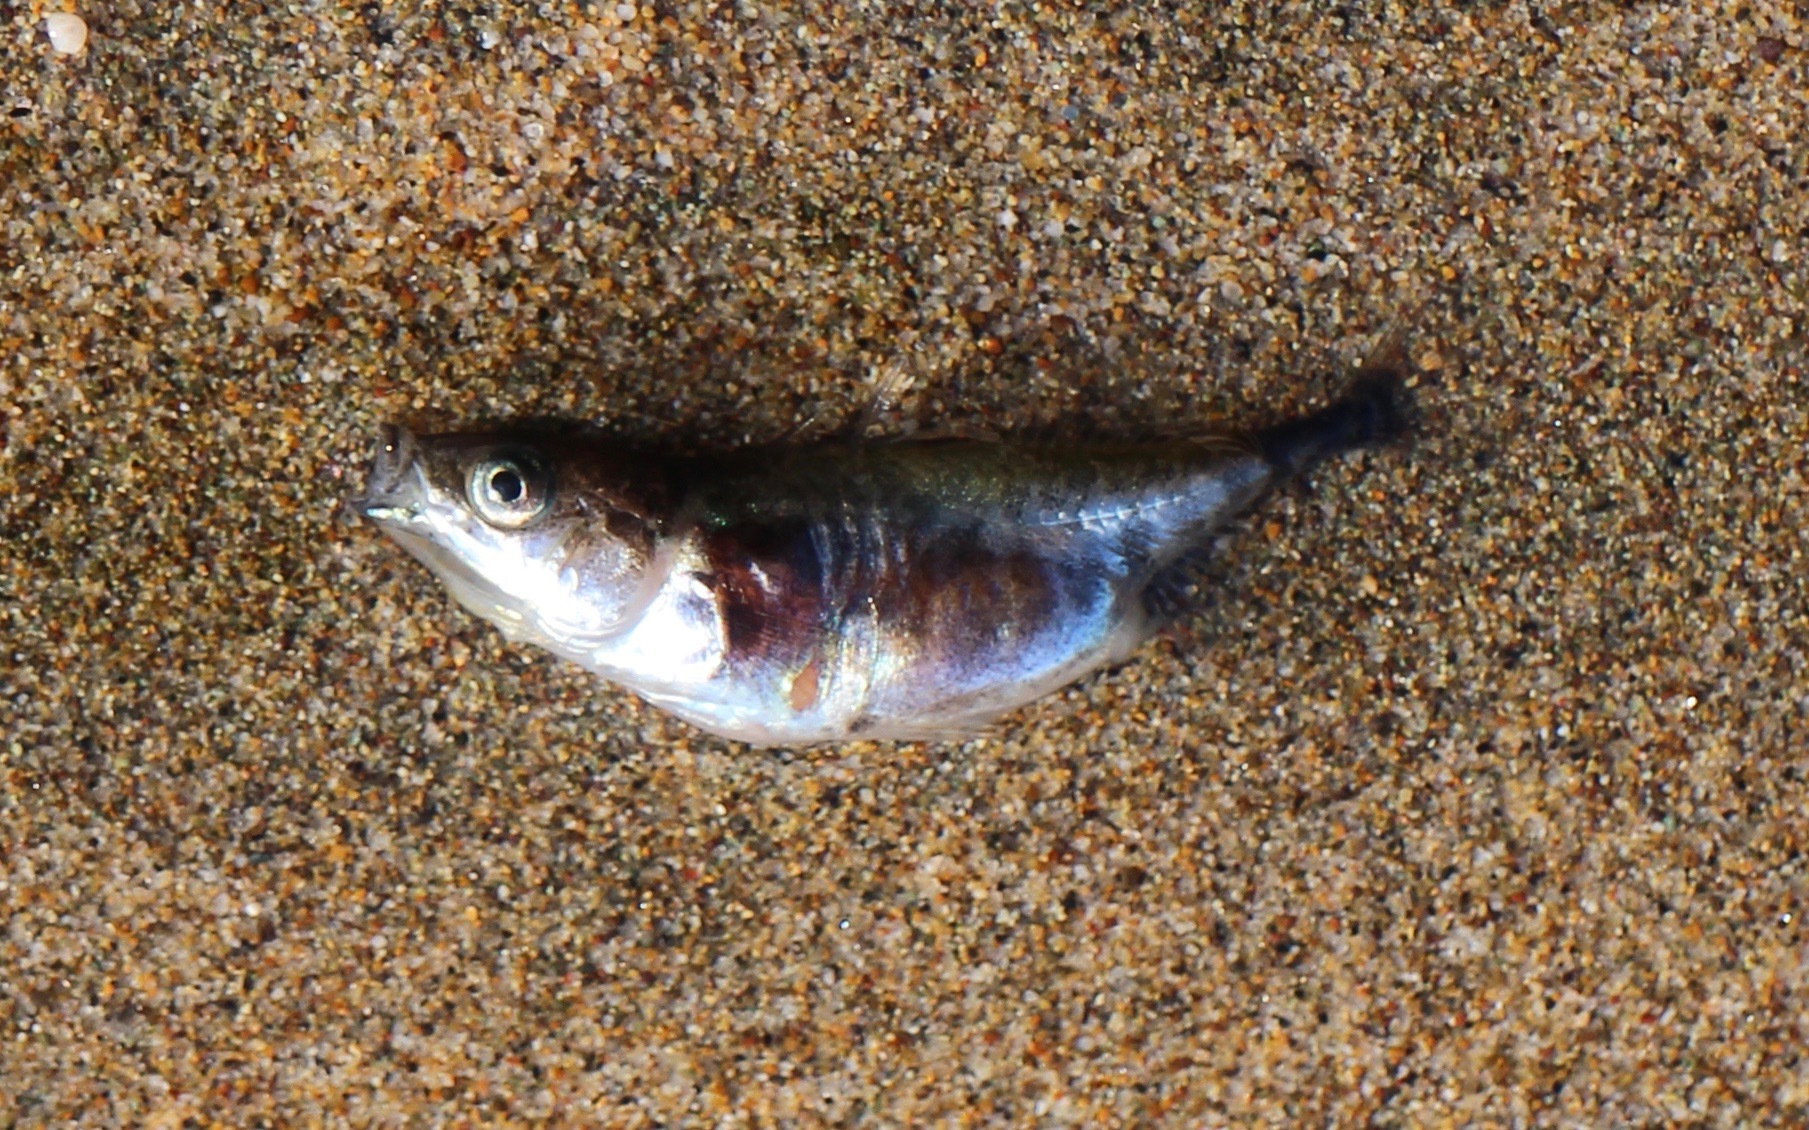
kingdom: Animalia
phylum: Chordata
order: Gasterosteiformes
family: Gasterosteidae
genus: Gasterosteus
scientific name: Gasterosteus aculeatus
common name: Three-spined stickleback
